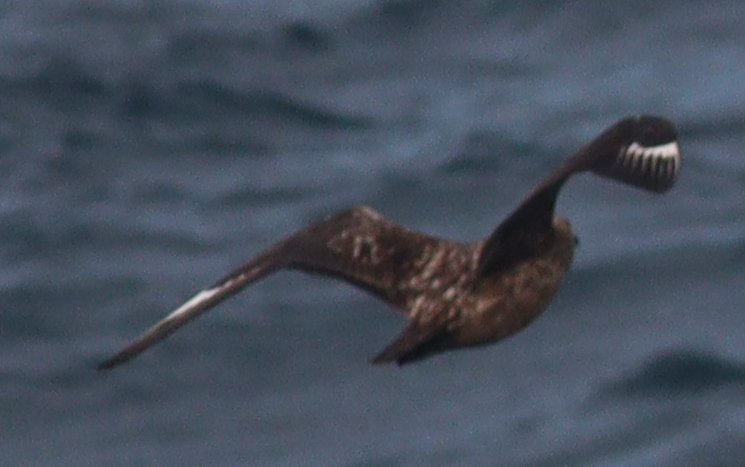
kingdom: Animalia
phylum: Chordata
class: Aves
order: Charadriiformes
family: Stercorariidae
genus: Stercorarius
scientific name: Stercorarius skua
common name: Great skua
